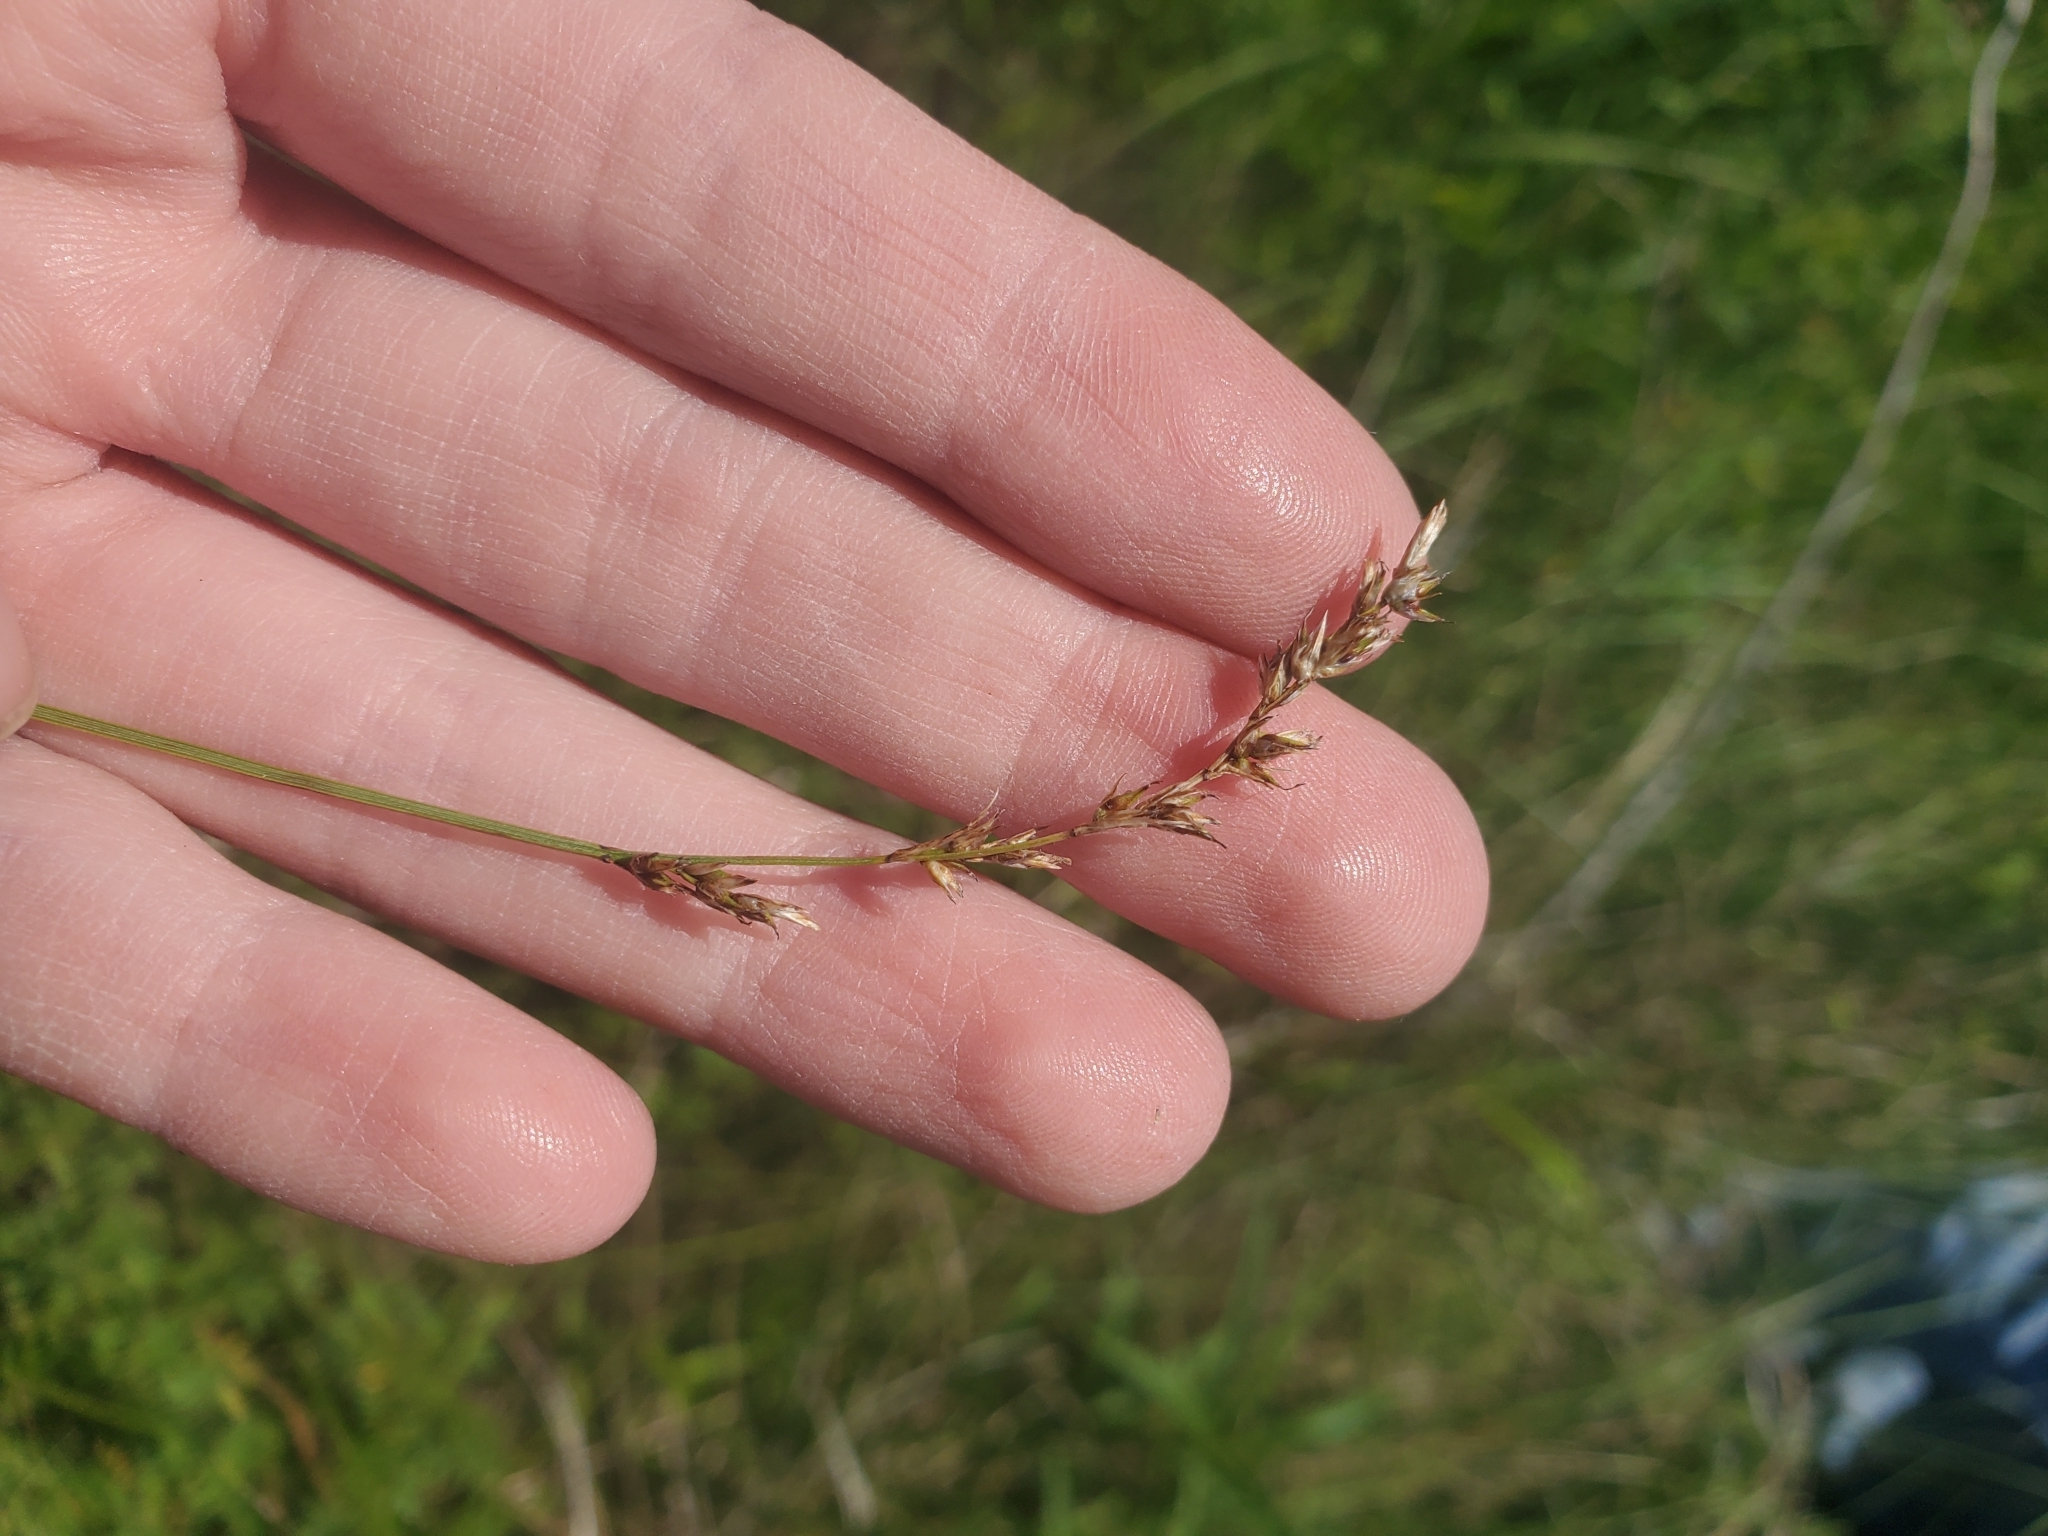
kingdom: Plantae
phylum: Tracheophyta
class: Liliopsida
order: Poales
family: Cyperaceae
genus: Carex
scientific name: Carex prairea
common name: Prairie sedge
